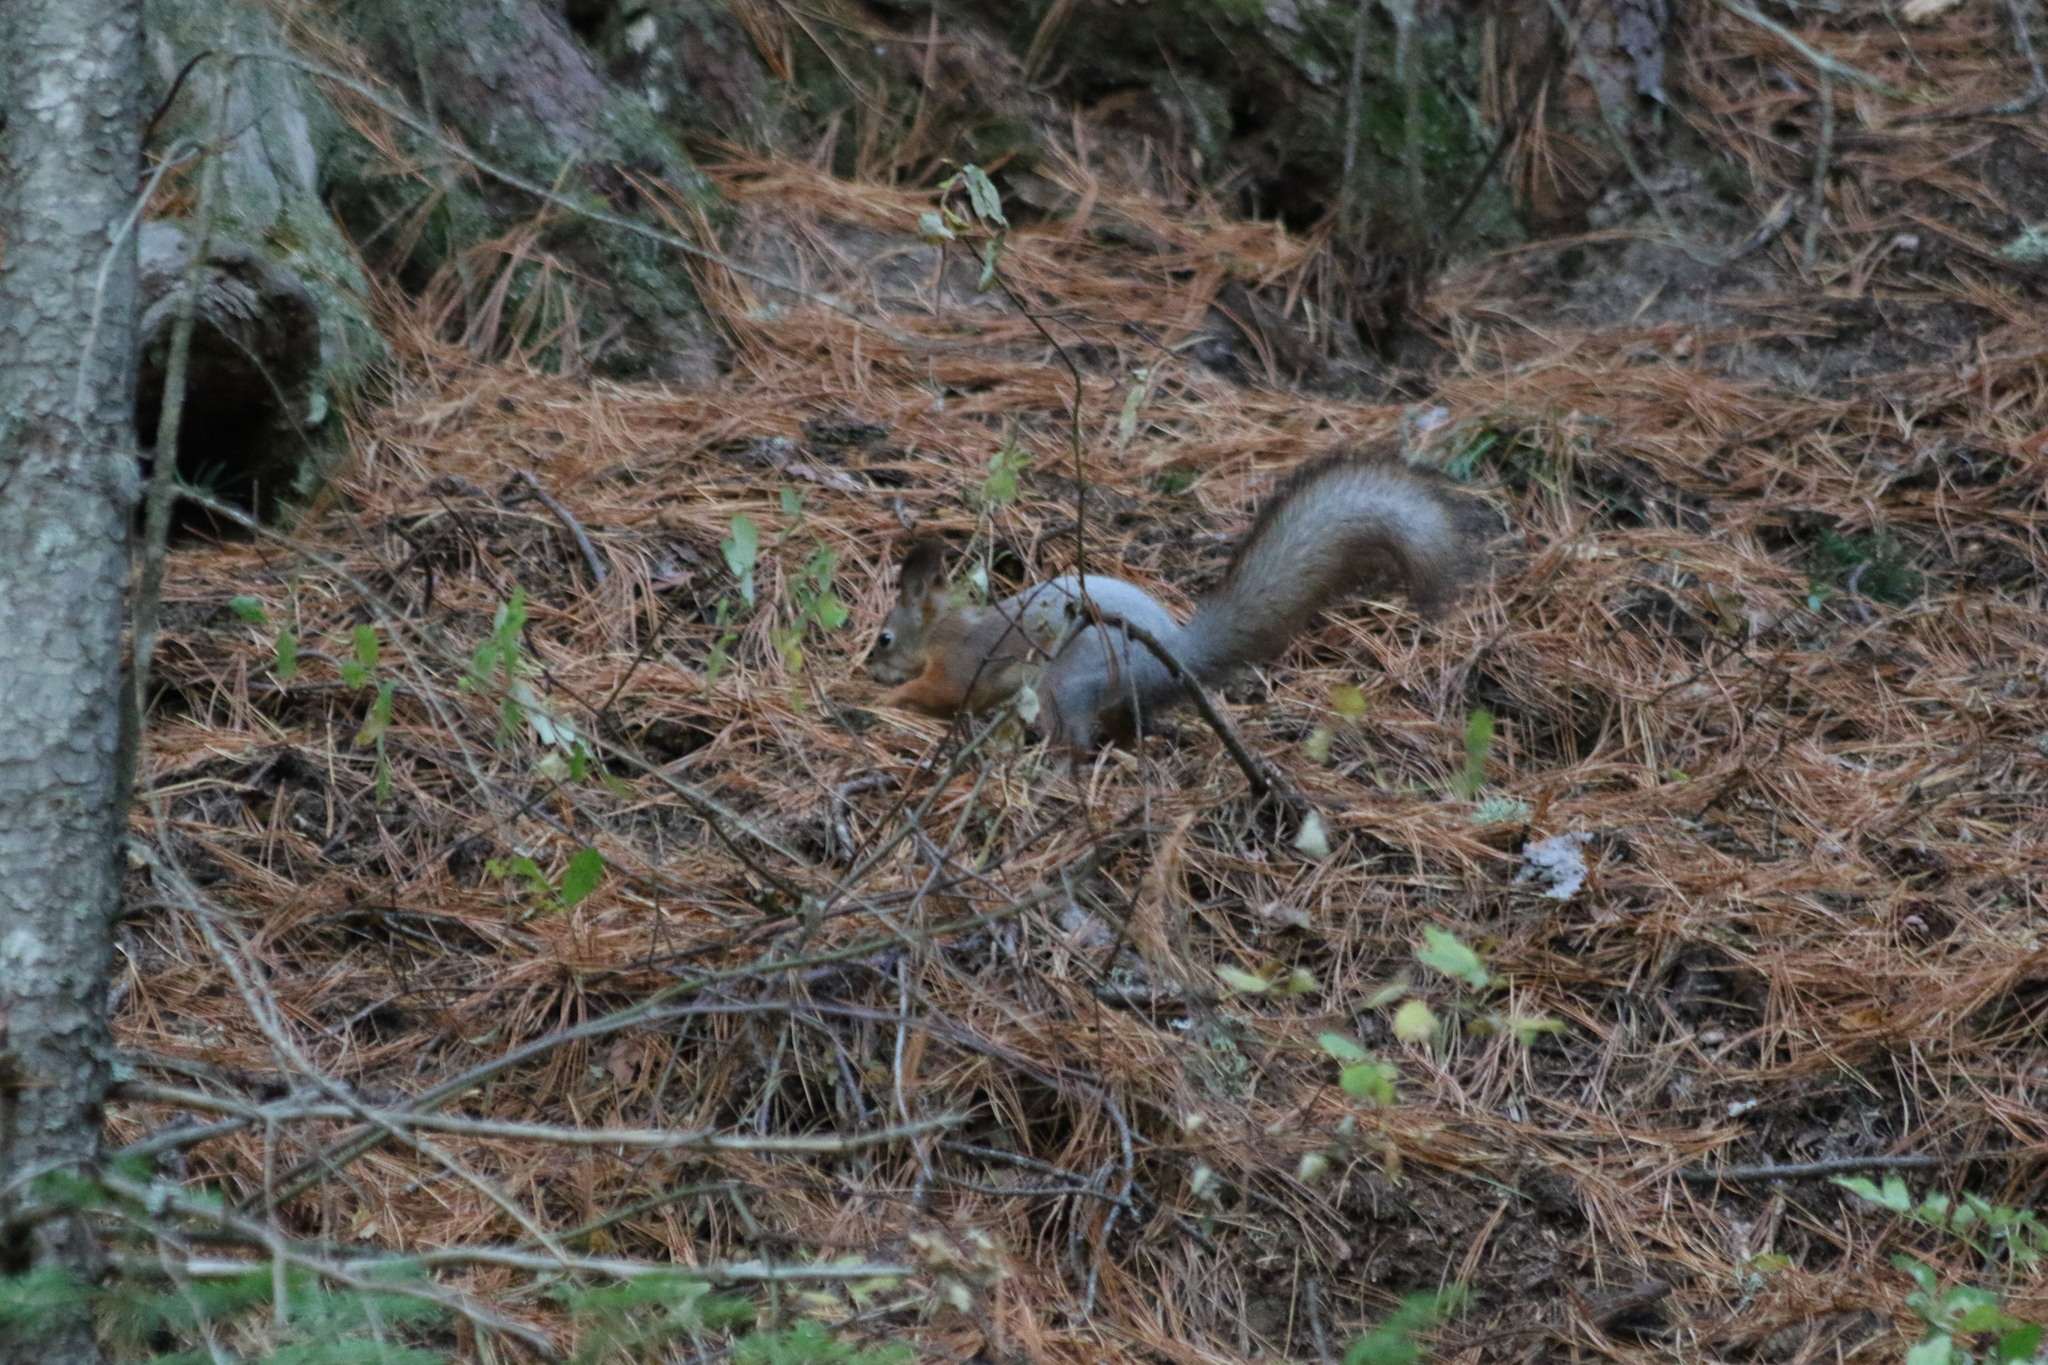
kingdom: Animalia
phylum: Chordata
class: Mammalia
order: Rodentia
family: Sciuridae
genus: Sciurus
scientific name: Sciurus vulgaris
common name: Eurasian red squirrel
